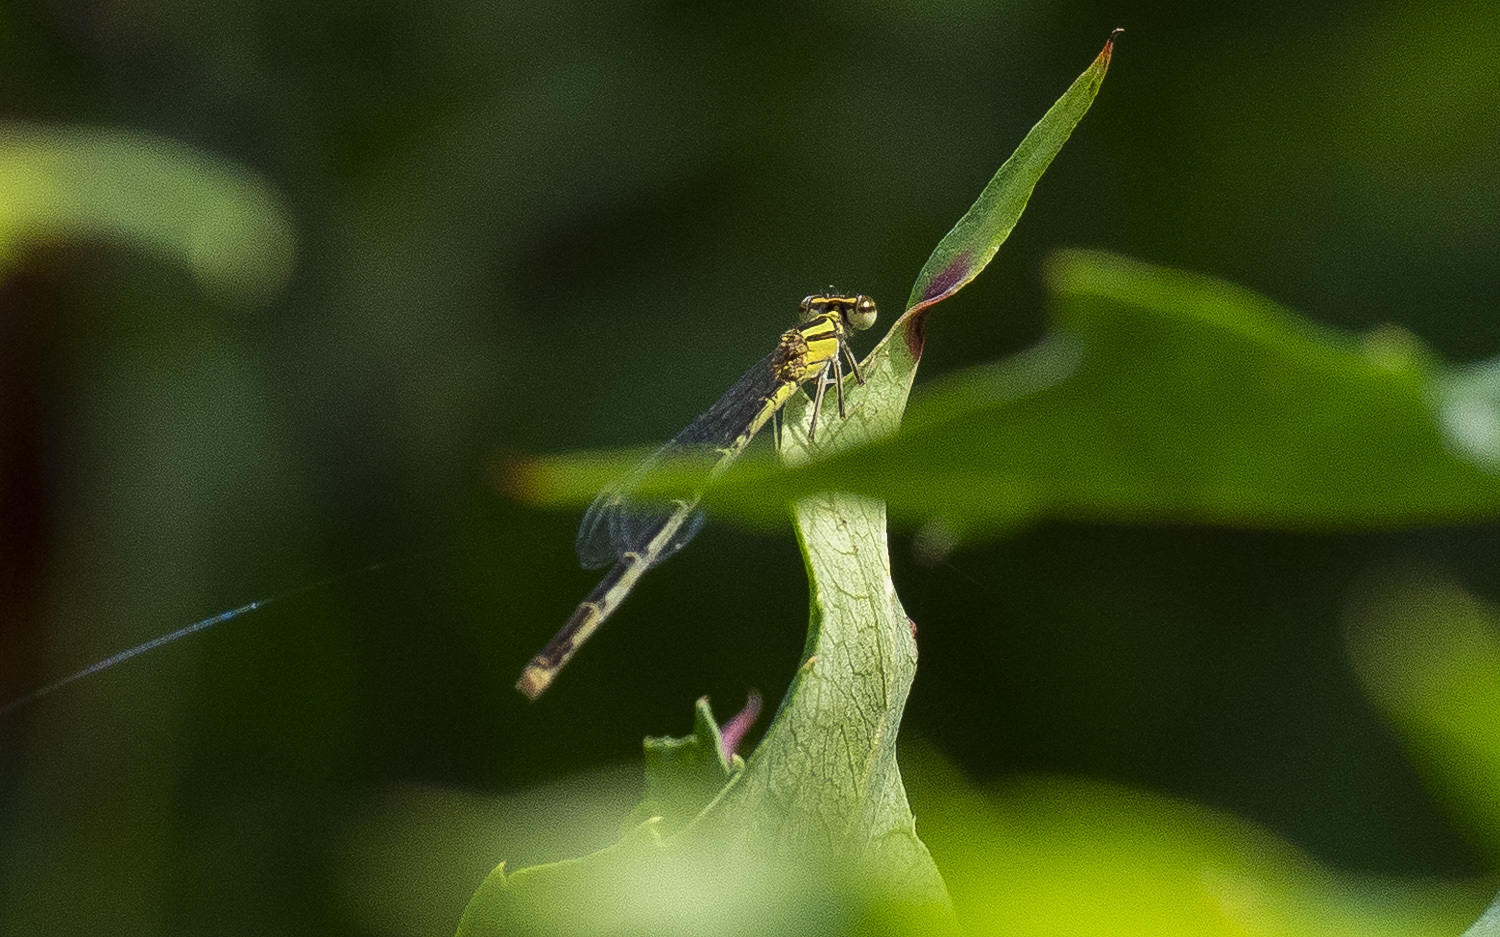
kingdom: Animalia
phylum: Arthropoda
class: Insecta
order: Odonata
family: Coenagrionidae
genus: Enallagma
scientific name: Enallagma signatum
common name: Orange bluet
